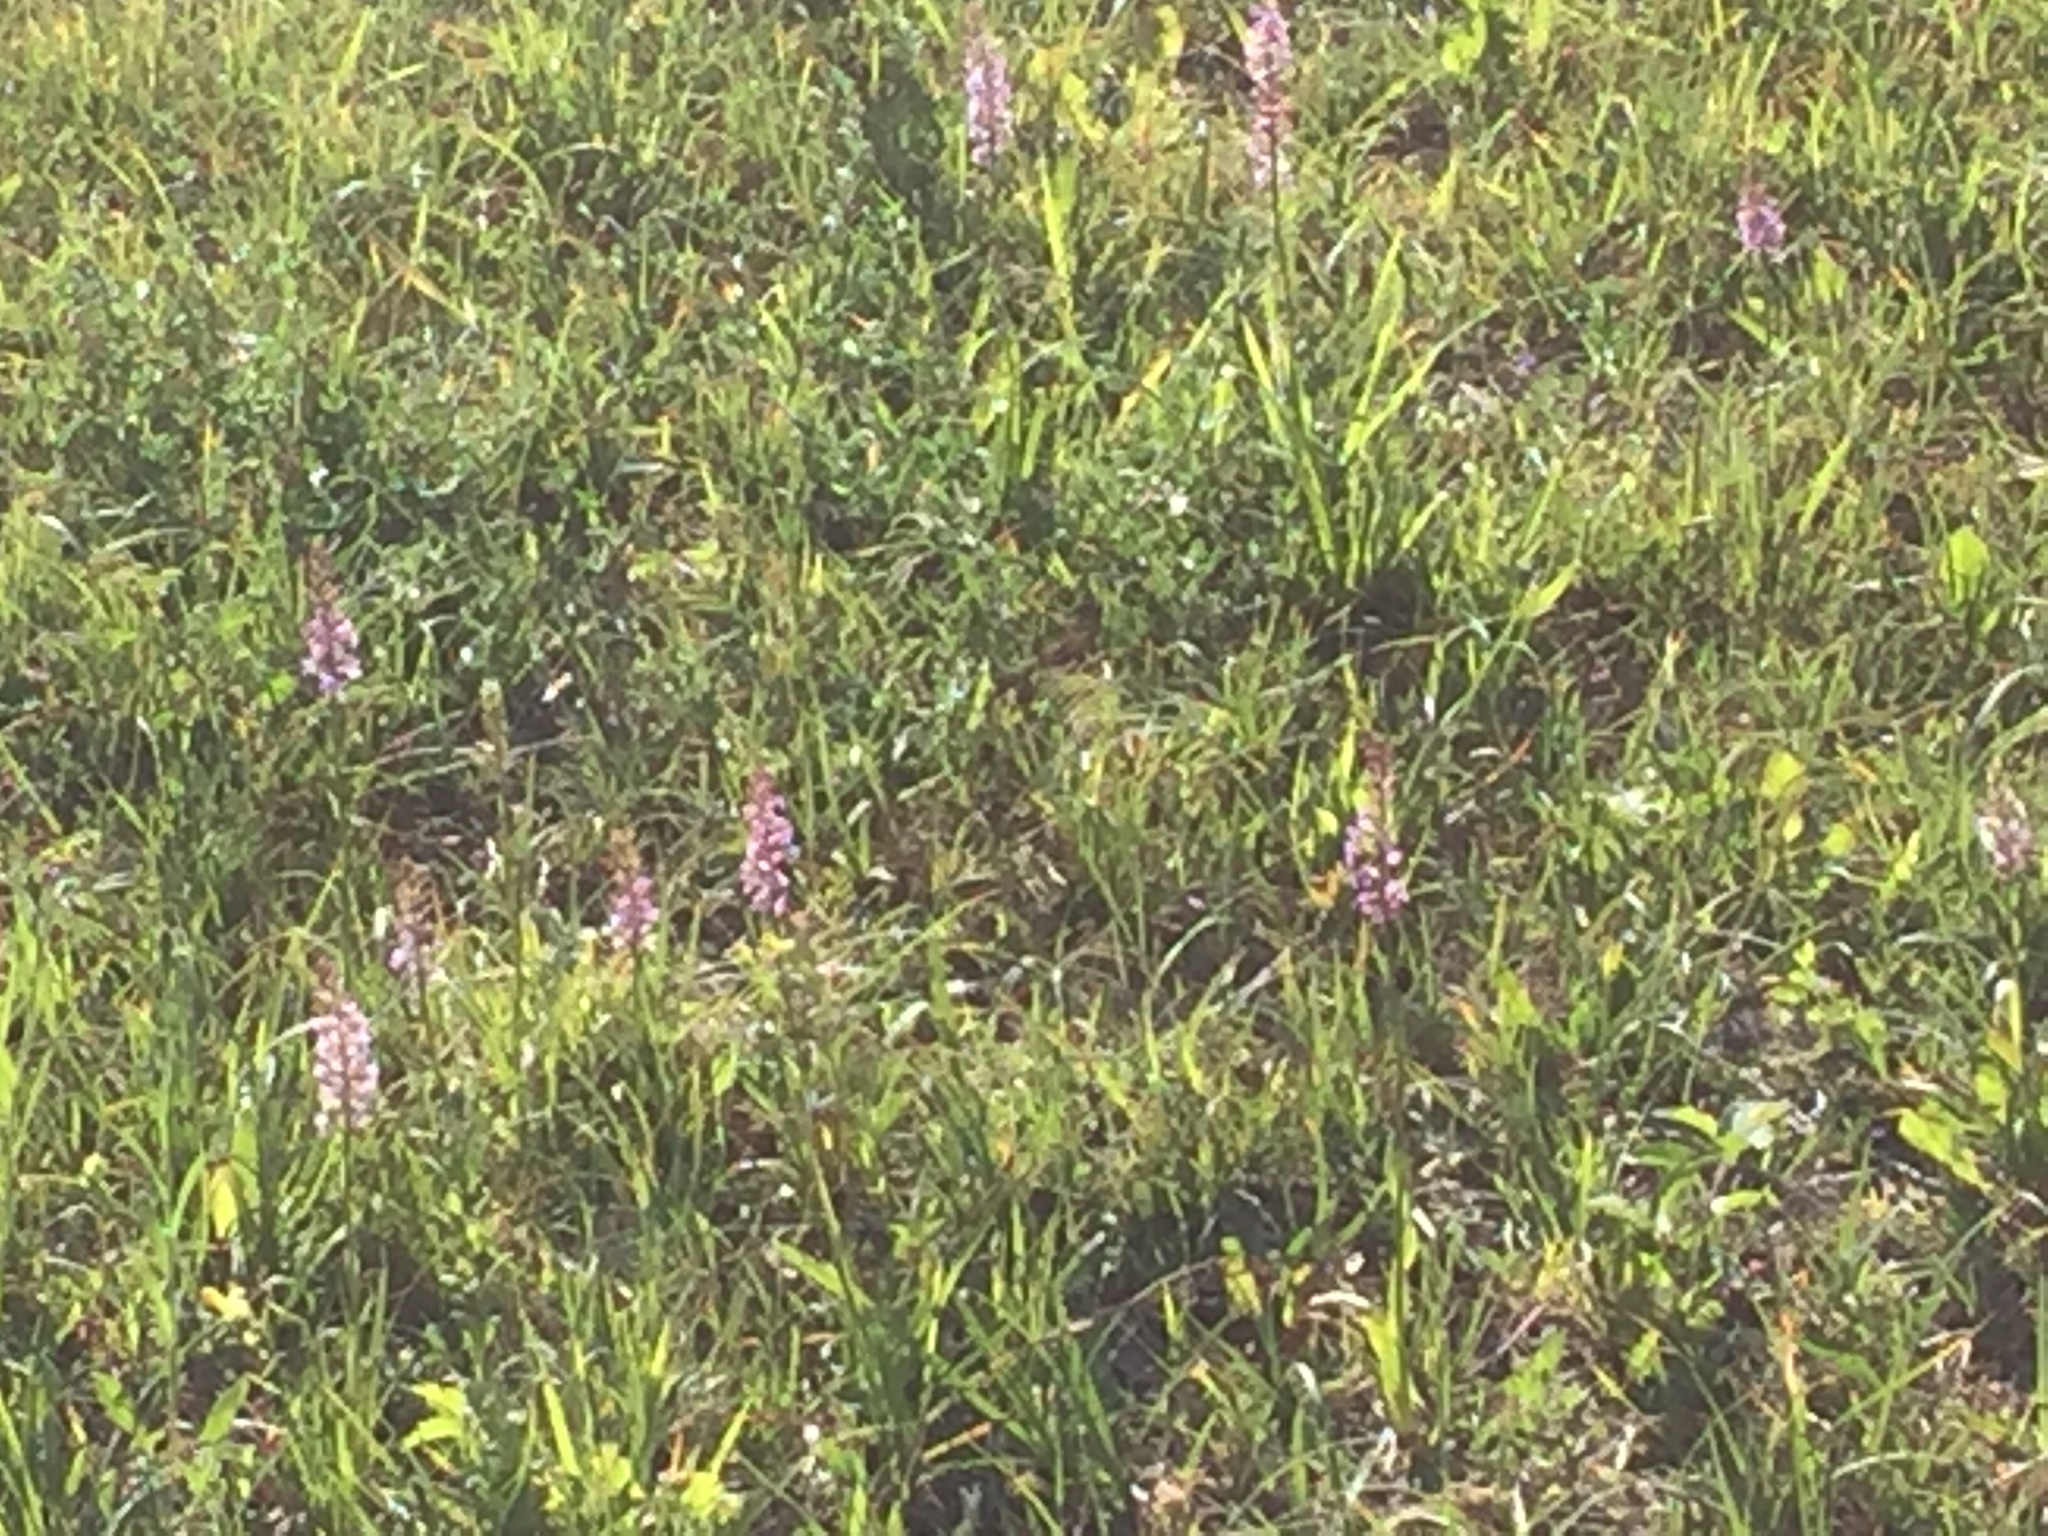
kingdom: Plantae
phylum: Tracheophyta
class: Liliopsida
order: Asparagales
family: Orchidaceae
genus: Gymnadenia
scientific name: Gymnadenia conopsea
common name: Fragrant orchid
